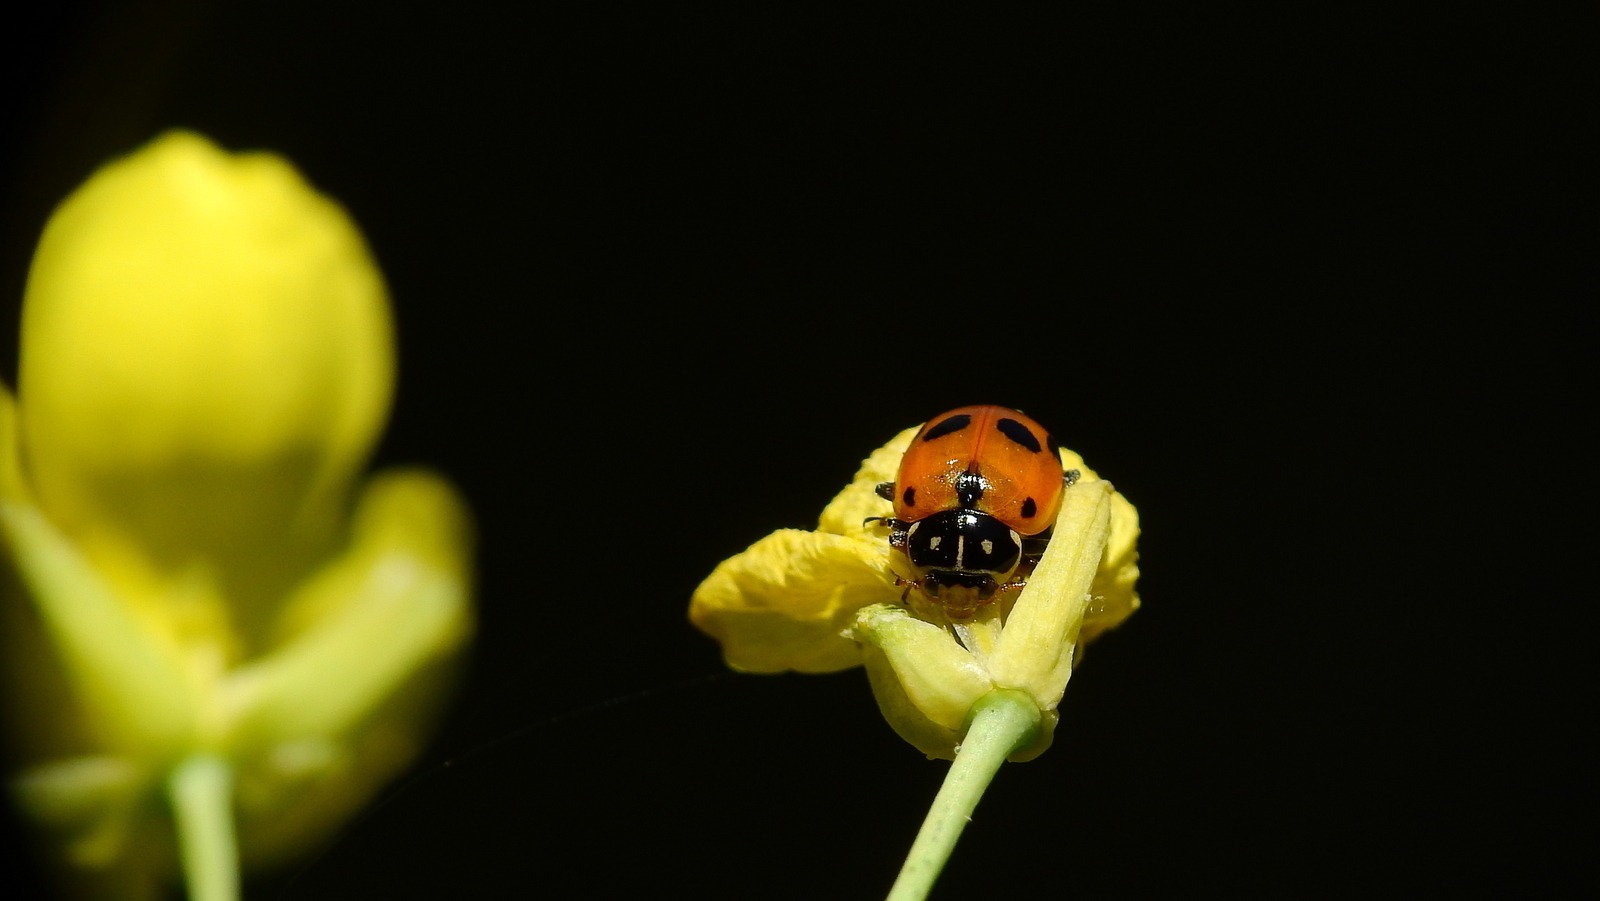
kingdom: Animalia
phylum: Arthropoda
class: Insecta
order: Coleoptera
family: Coccinellidae
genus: Hippodamia
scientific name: Hippodamia variegata
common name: Ladybird beetle
